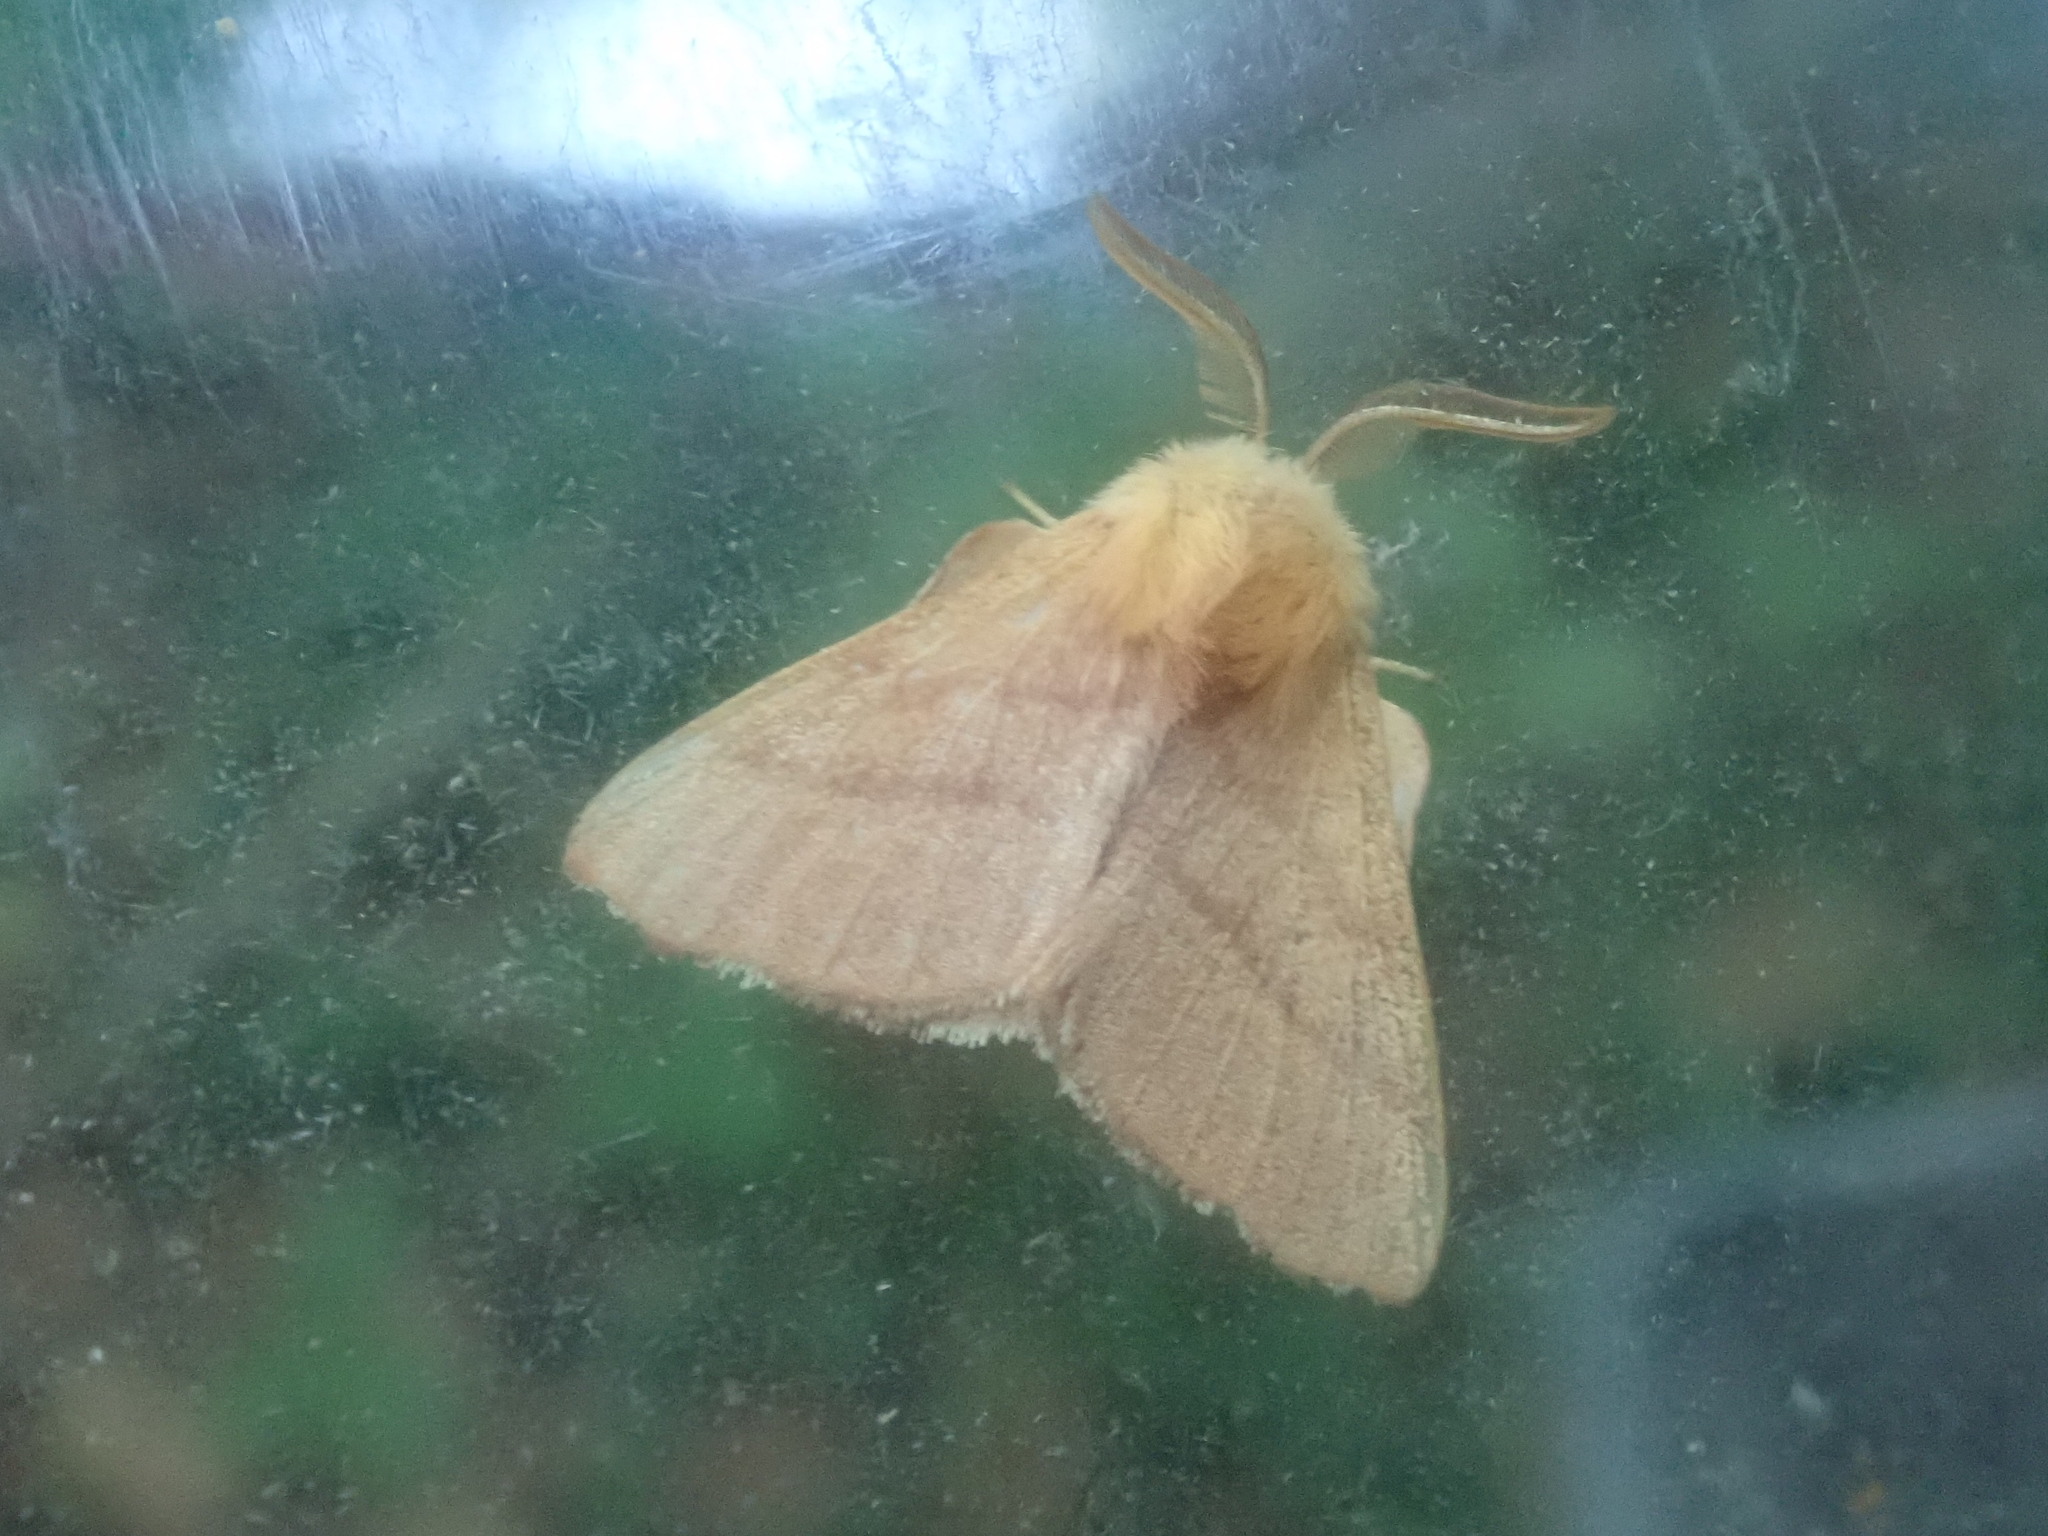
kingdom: Animalia
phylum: Arthropoda
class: Insecta
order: Lepidoptera
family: Lasiocampidae
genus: Malacosoma
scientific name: Malacosoma disstria
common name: Forest tent caterpillar
